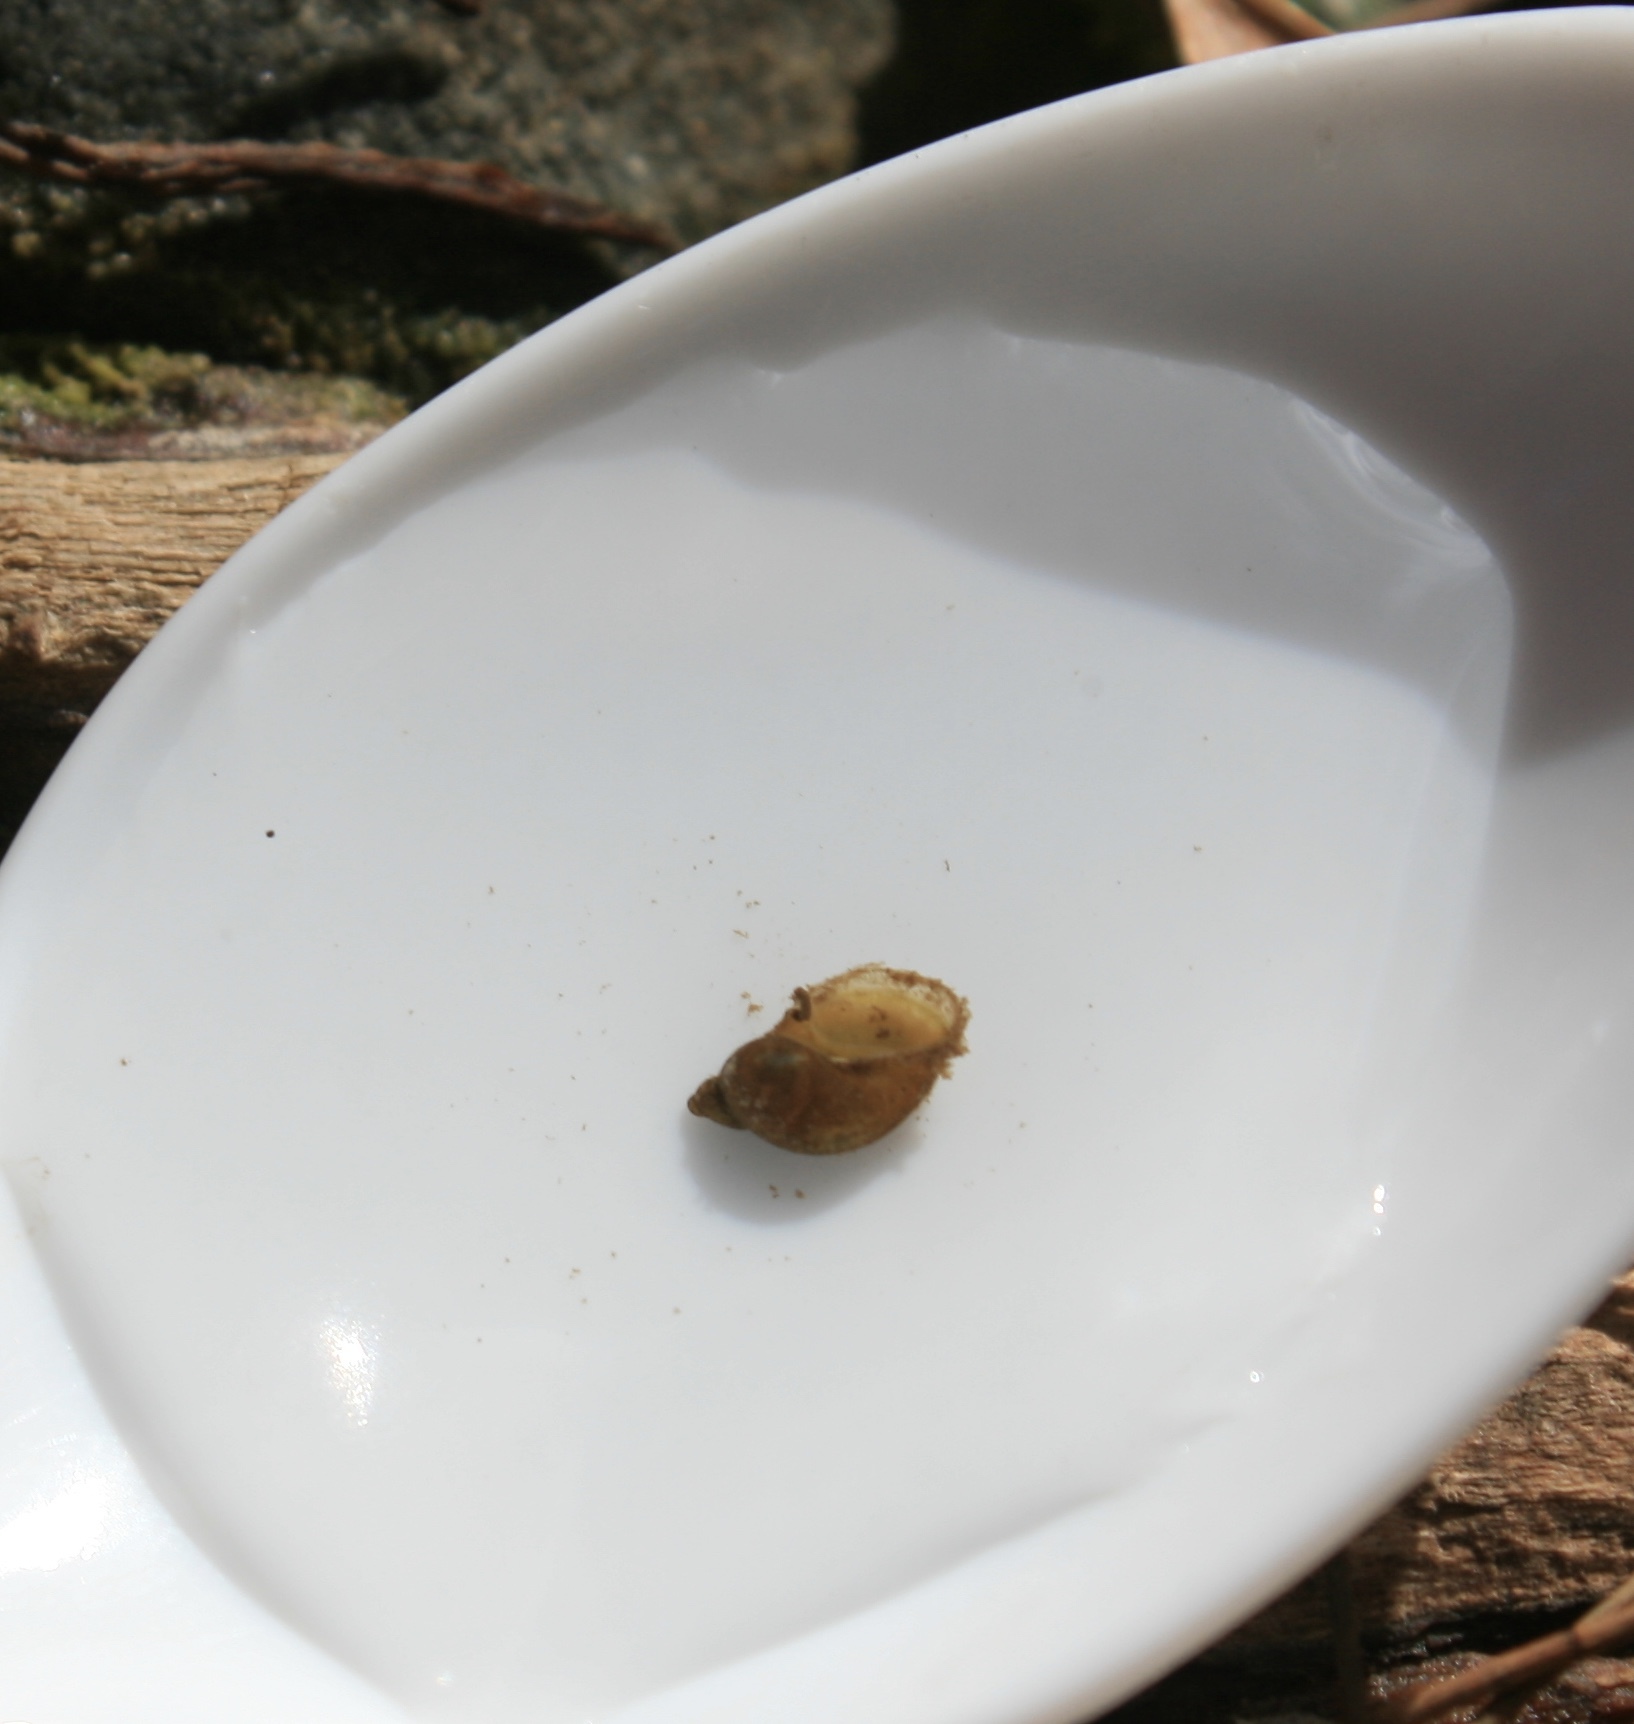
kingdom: Animalia
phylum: Mollusca
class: Gastropoda
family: Physidae
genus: Physella
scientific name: Physella acuta
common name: European physa
